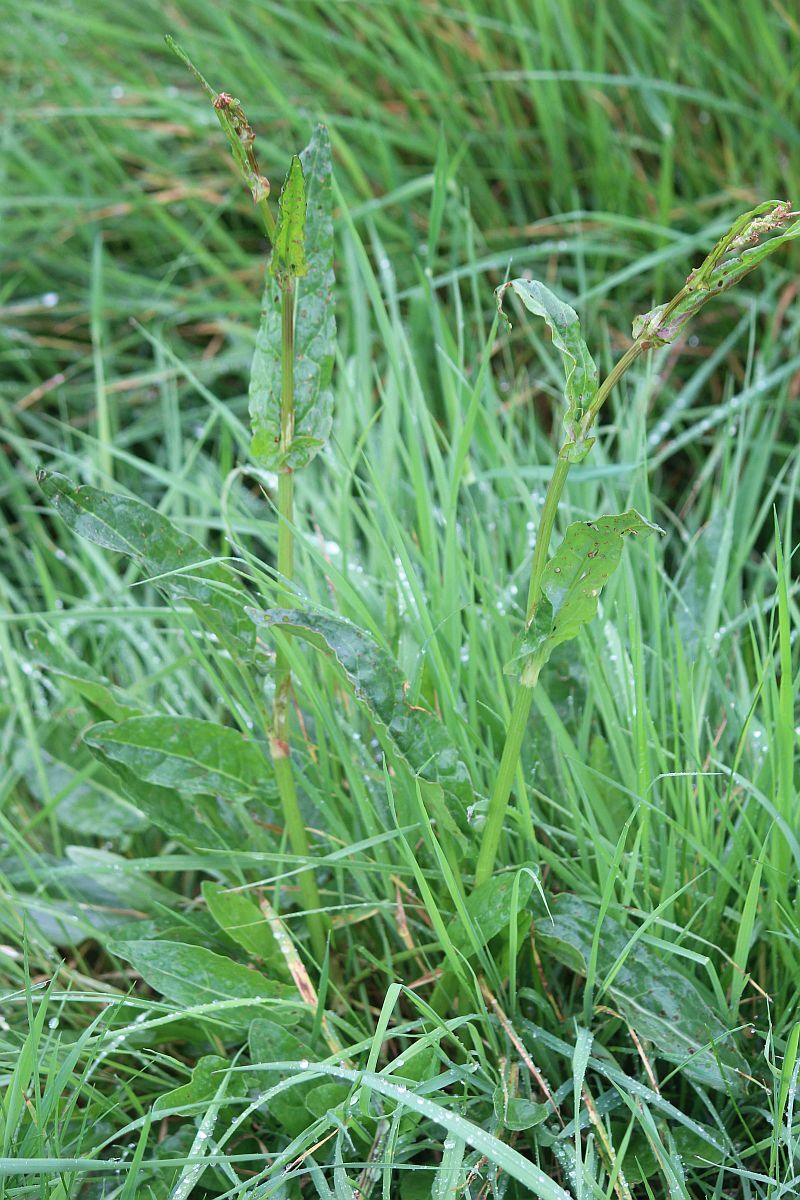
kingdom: Plantae
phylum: Tracheophyta
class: Magnoliopsida
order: Caryophyllales
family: Polygonaceae
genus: Rumex
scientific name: Rumex acetosa
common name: Garden sorrel
